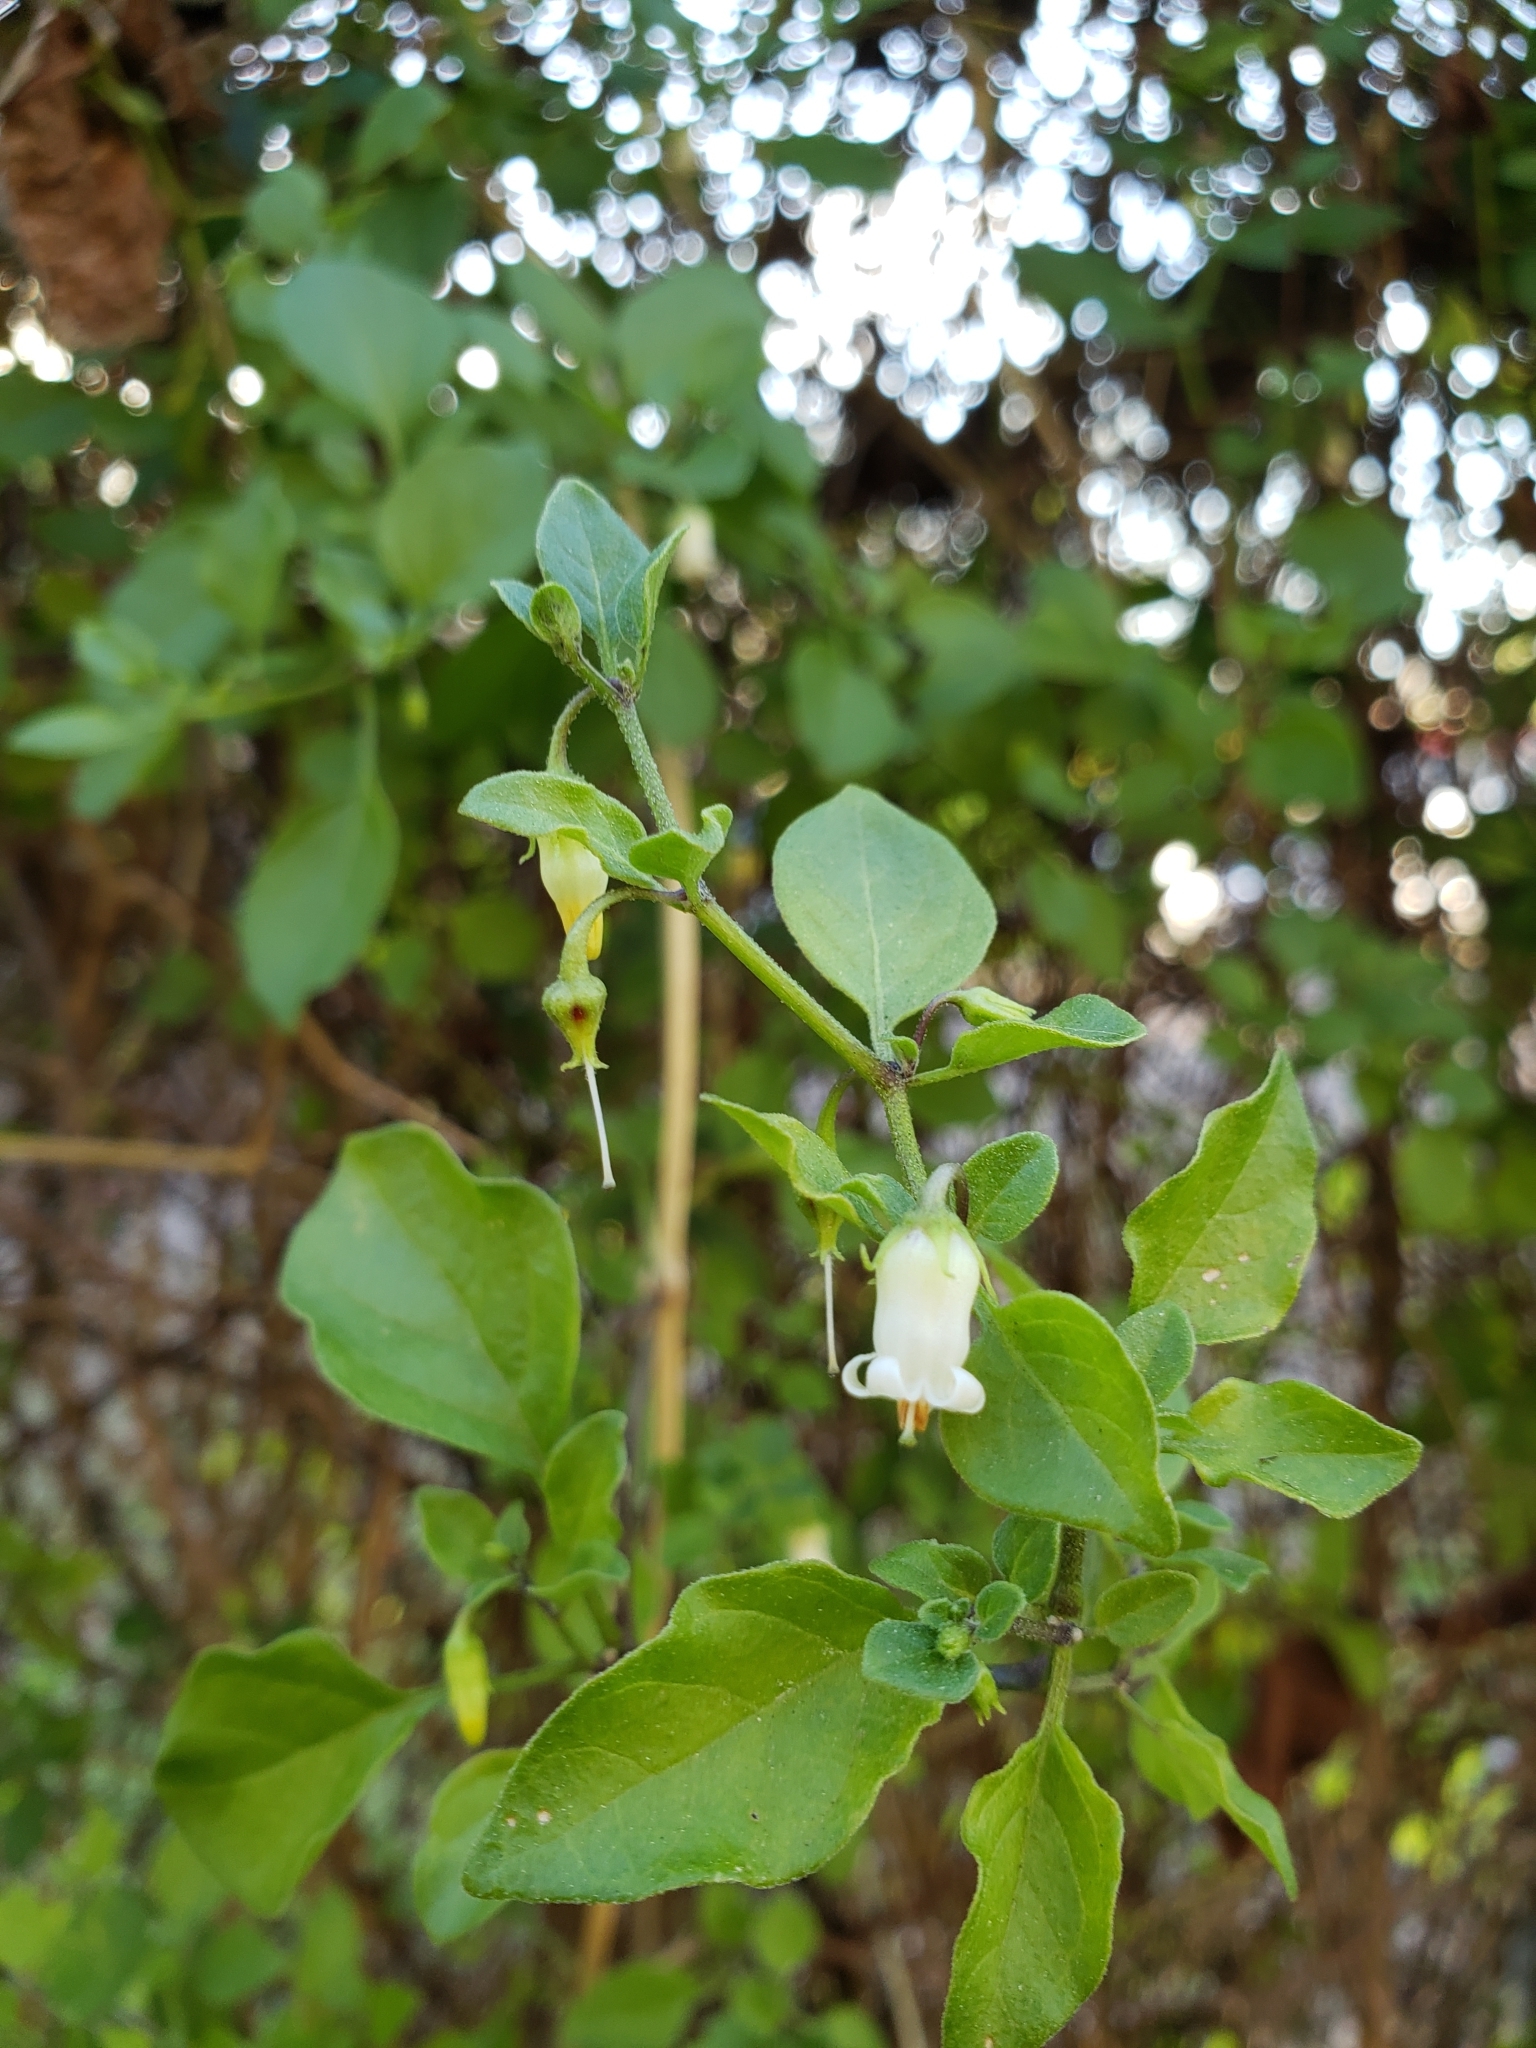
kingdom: Plantae
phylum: Tracheophyta
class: Magnoliopsida
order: Ericales
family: Styracaceae
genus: Styrax
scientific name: Styrax americanus
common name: American snowbell
